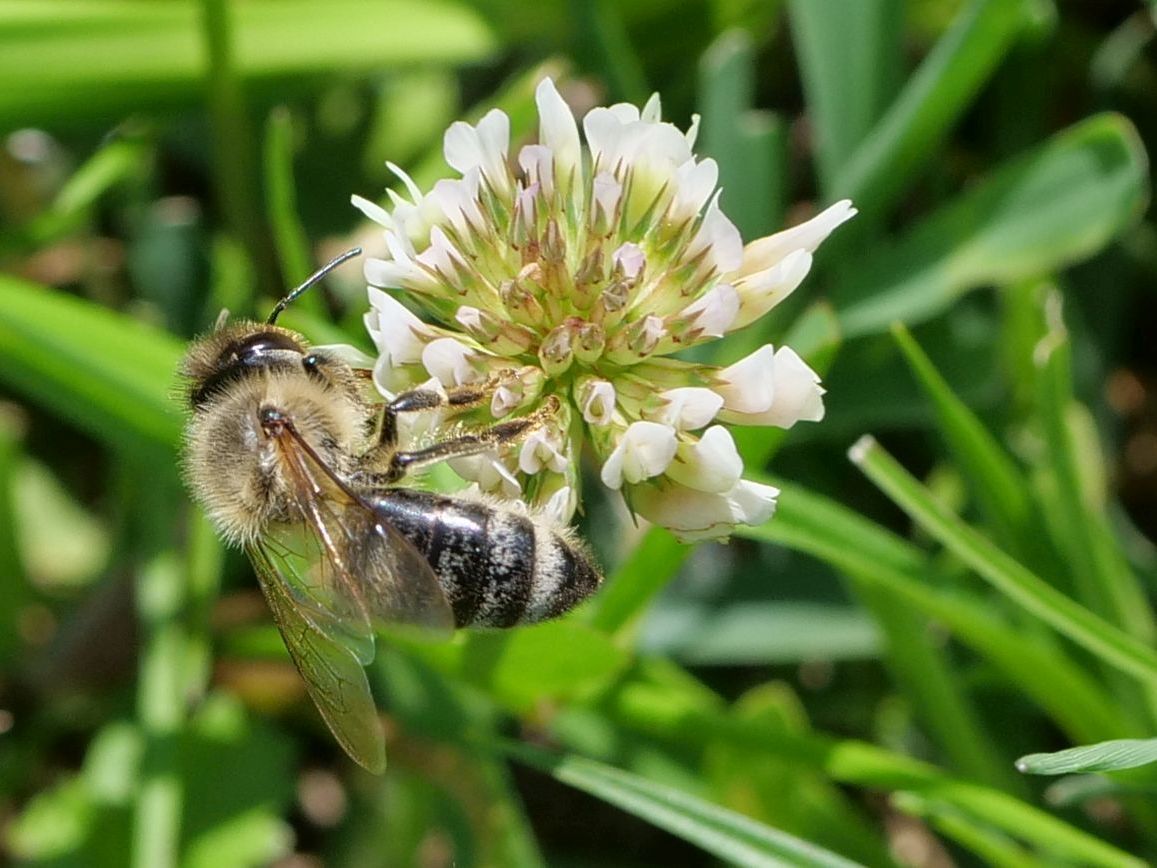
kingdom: Animalia
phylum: Arthropoda
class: Insecta
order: Hymenoptera
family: Apidae
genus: Apis
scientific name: Apis mellifera
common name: Honey bee
